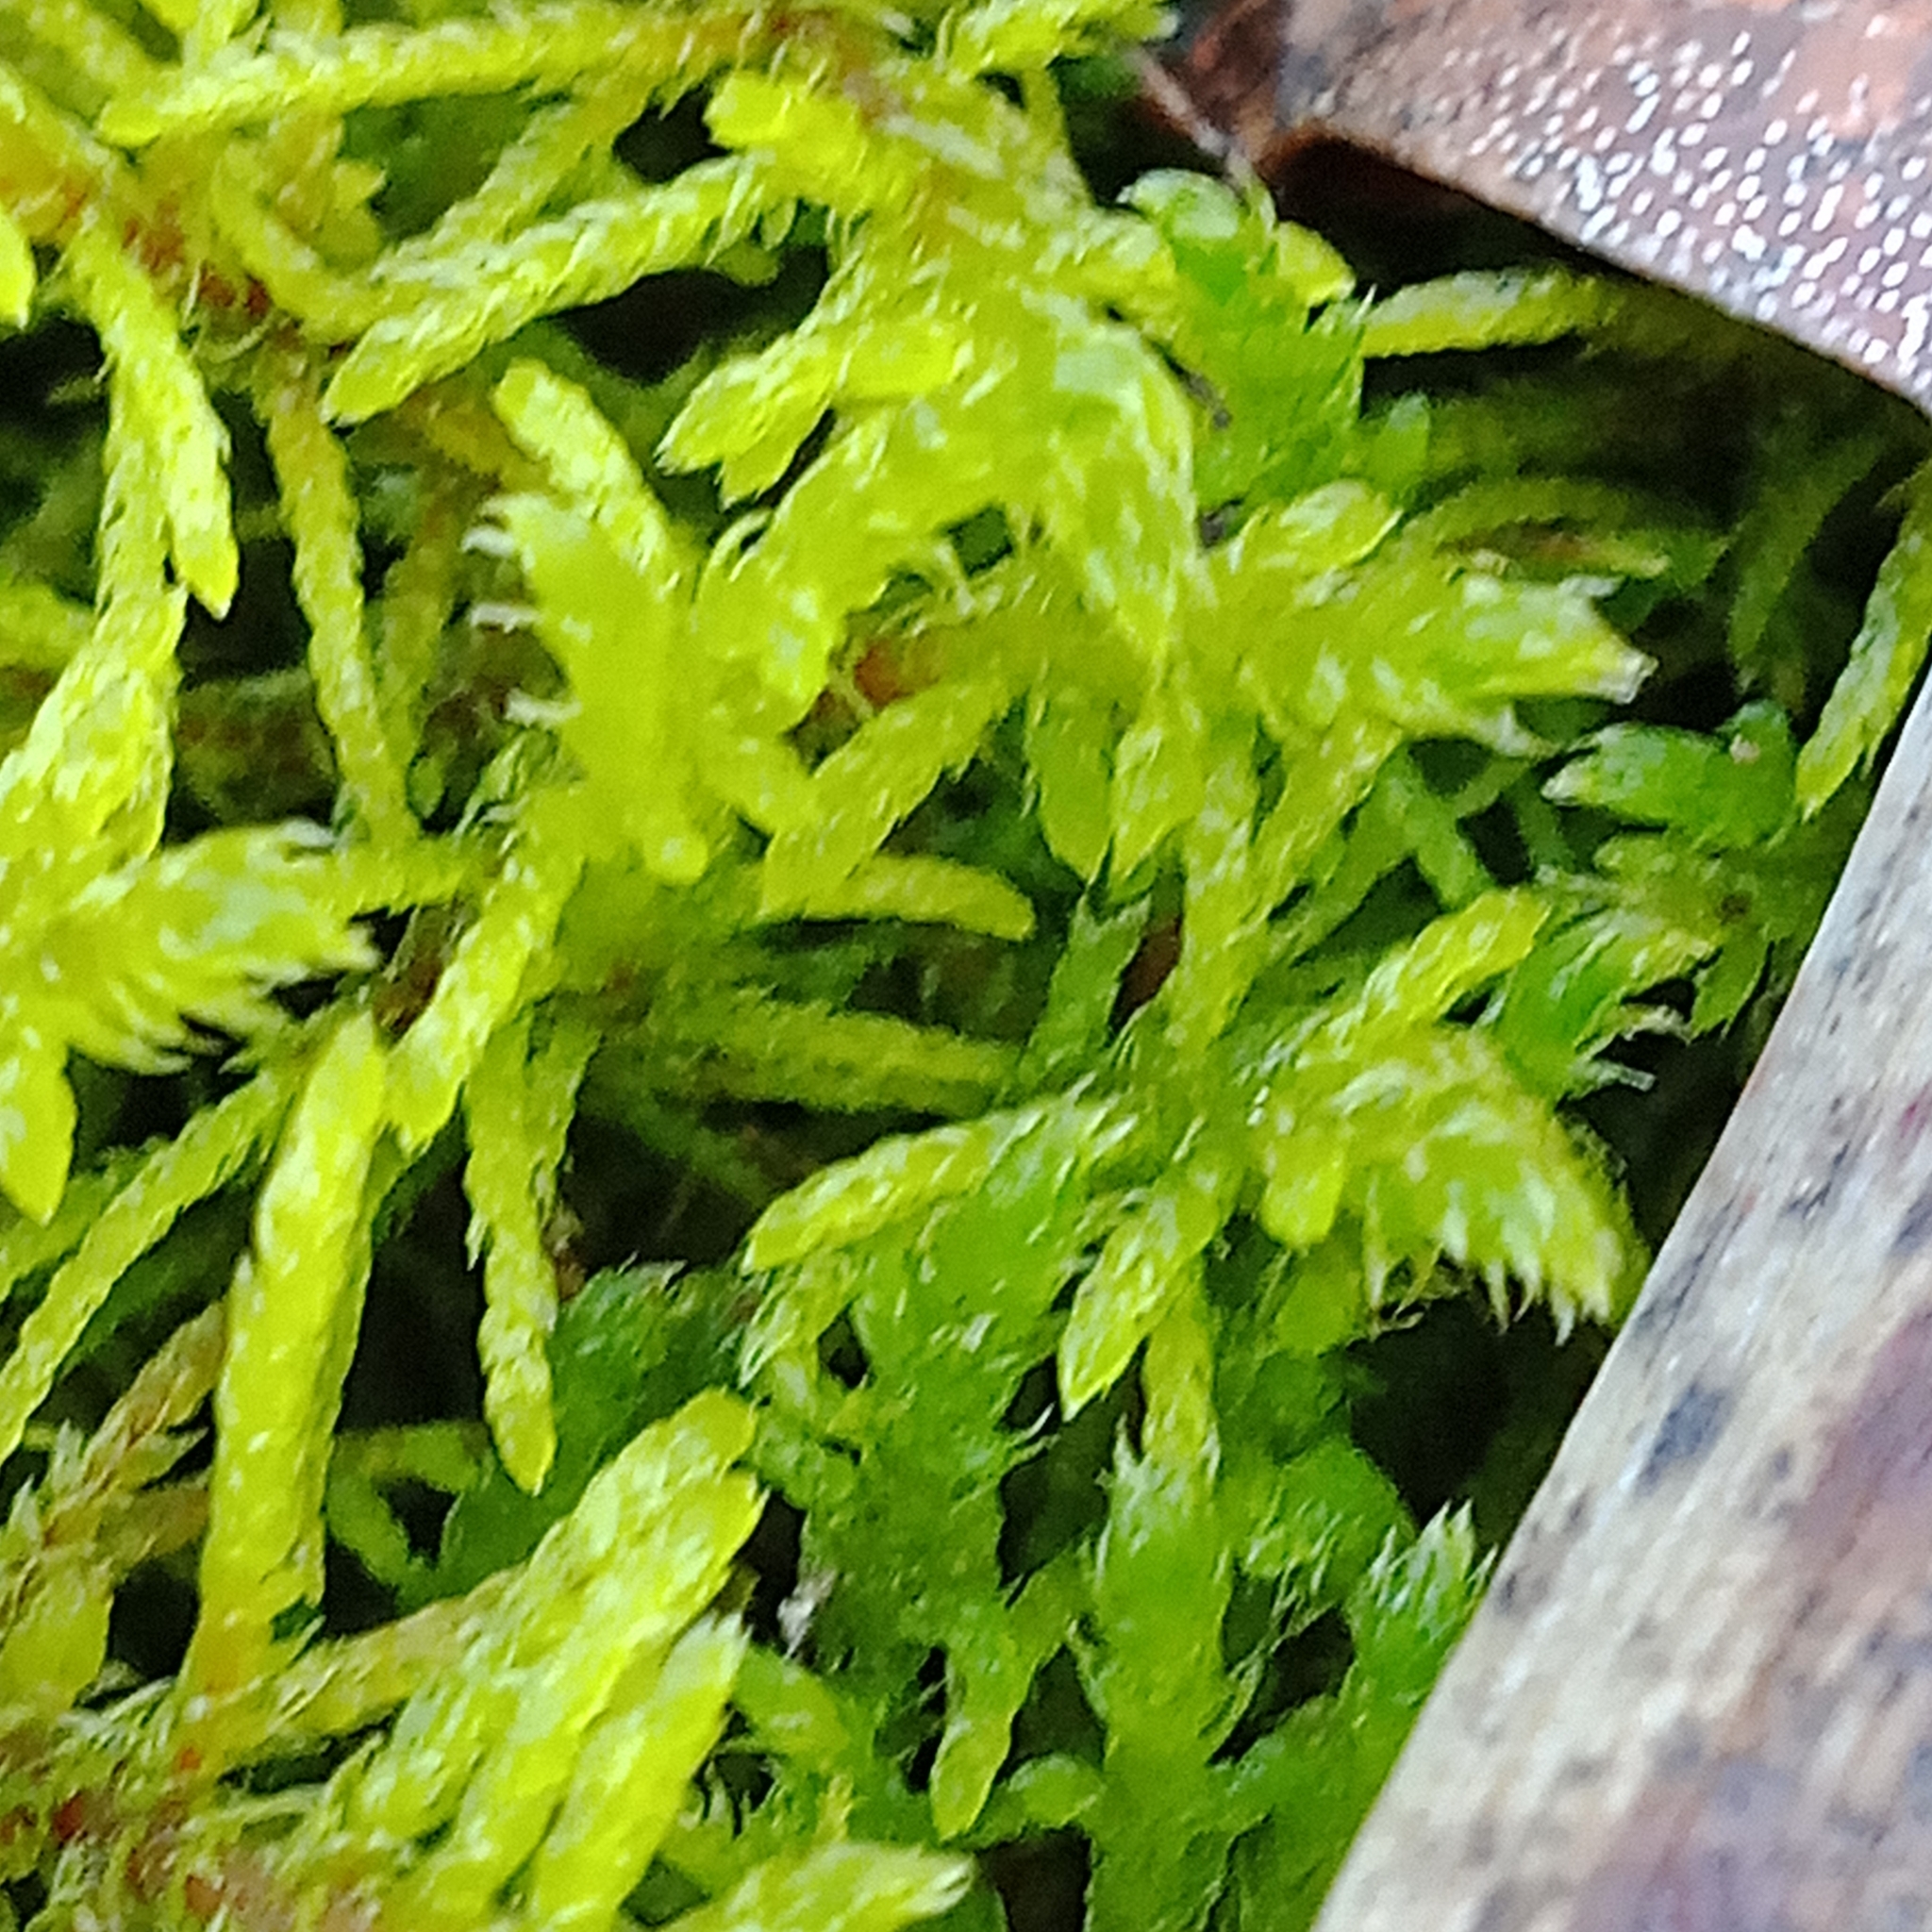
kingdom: Plantae
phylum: Bryophyta
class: Bryopsida
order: Hypnales
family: Thuidiaceae
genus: Abietinella
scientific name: Abietinella abietina
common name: Wiry fern moss
